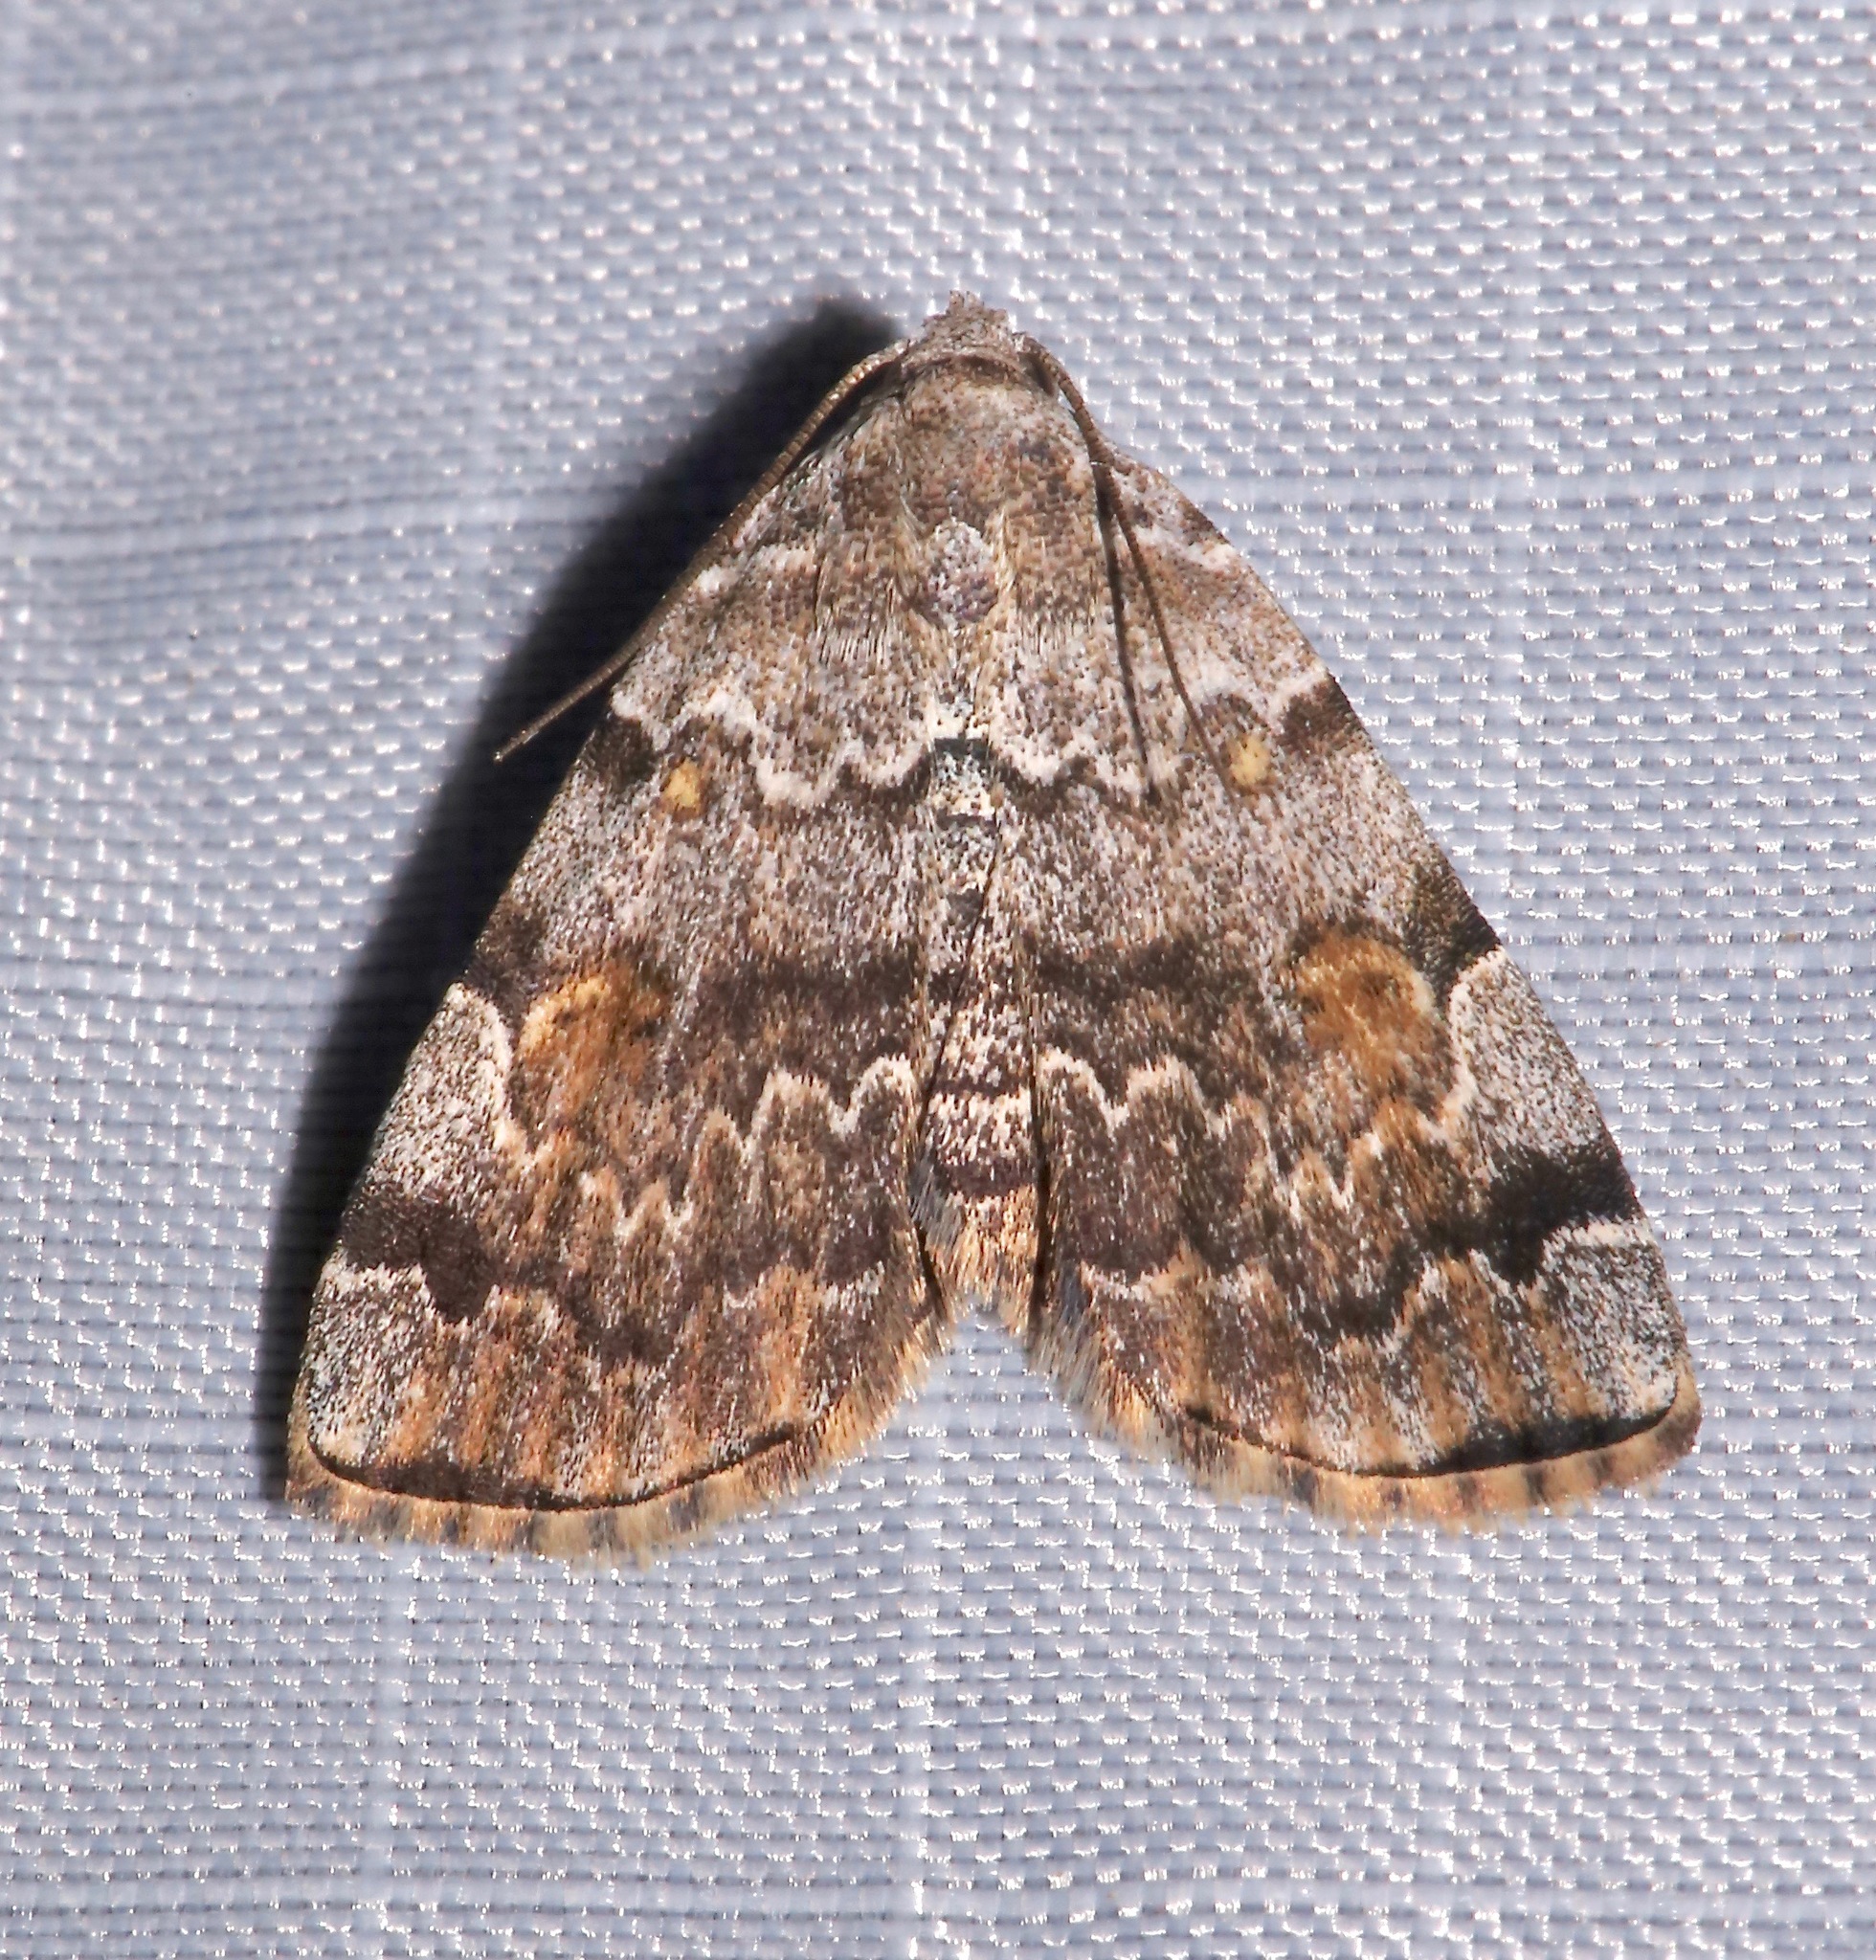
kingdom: Animalia
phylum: Arthropoda
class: Insecta
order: Lepidoptera
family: Erebidae
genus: Idia
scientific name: Idia americalis
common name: American idia moth
